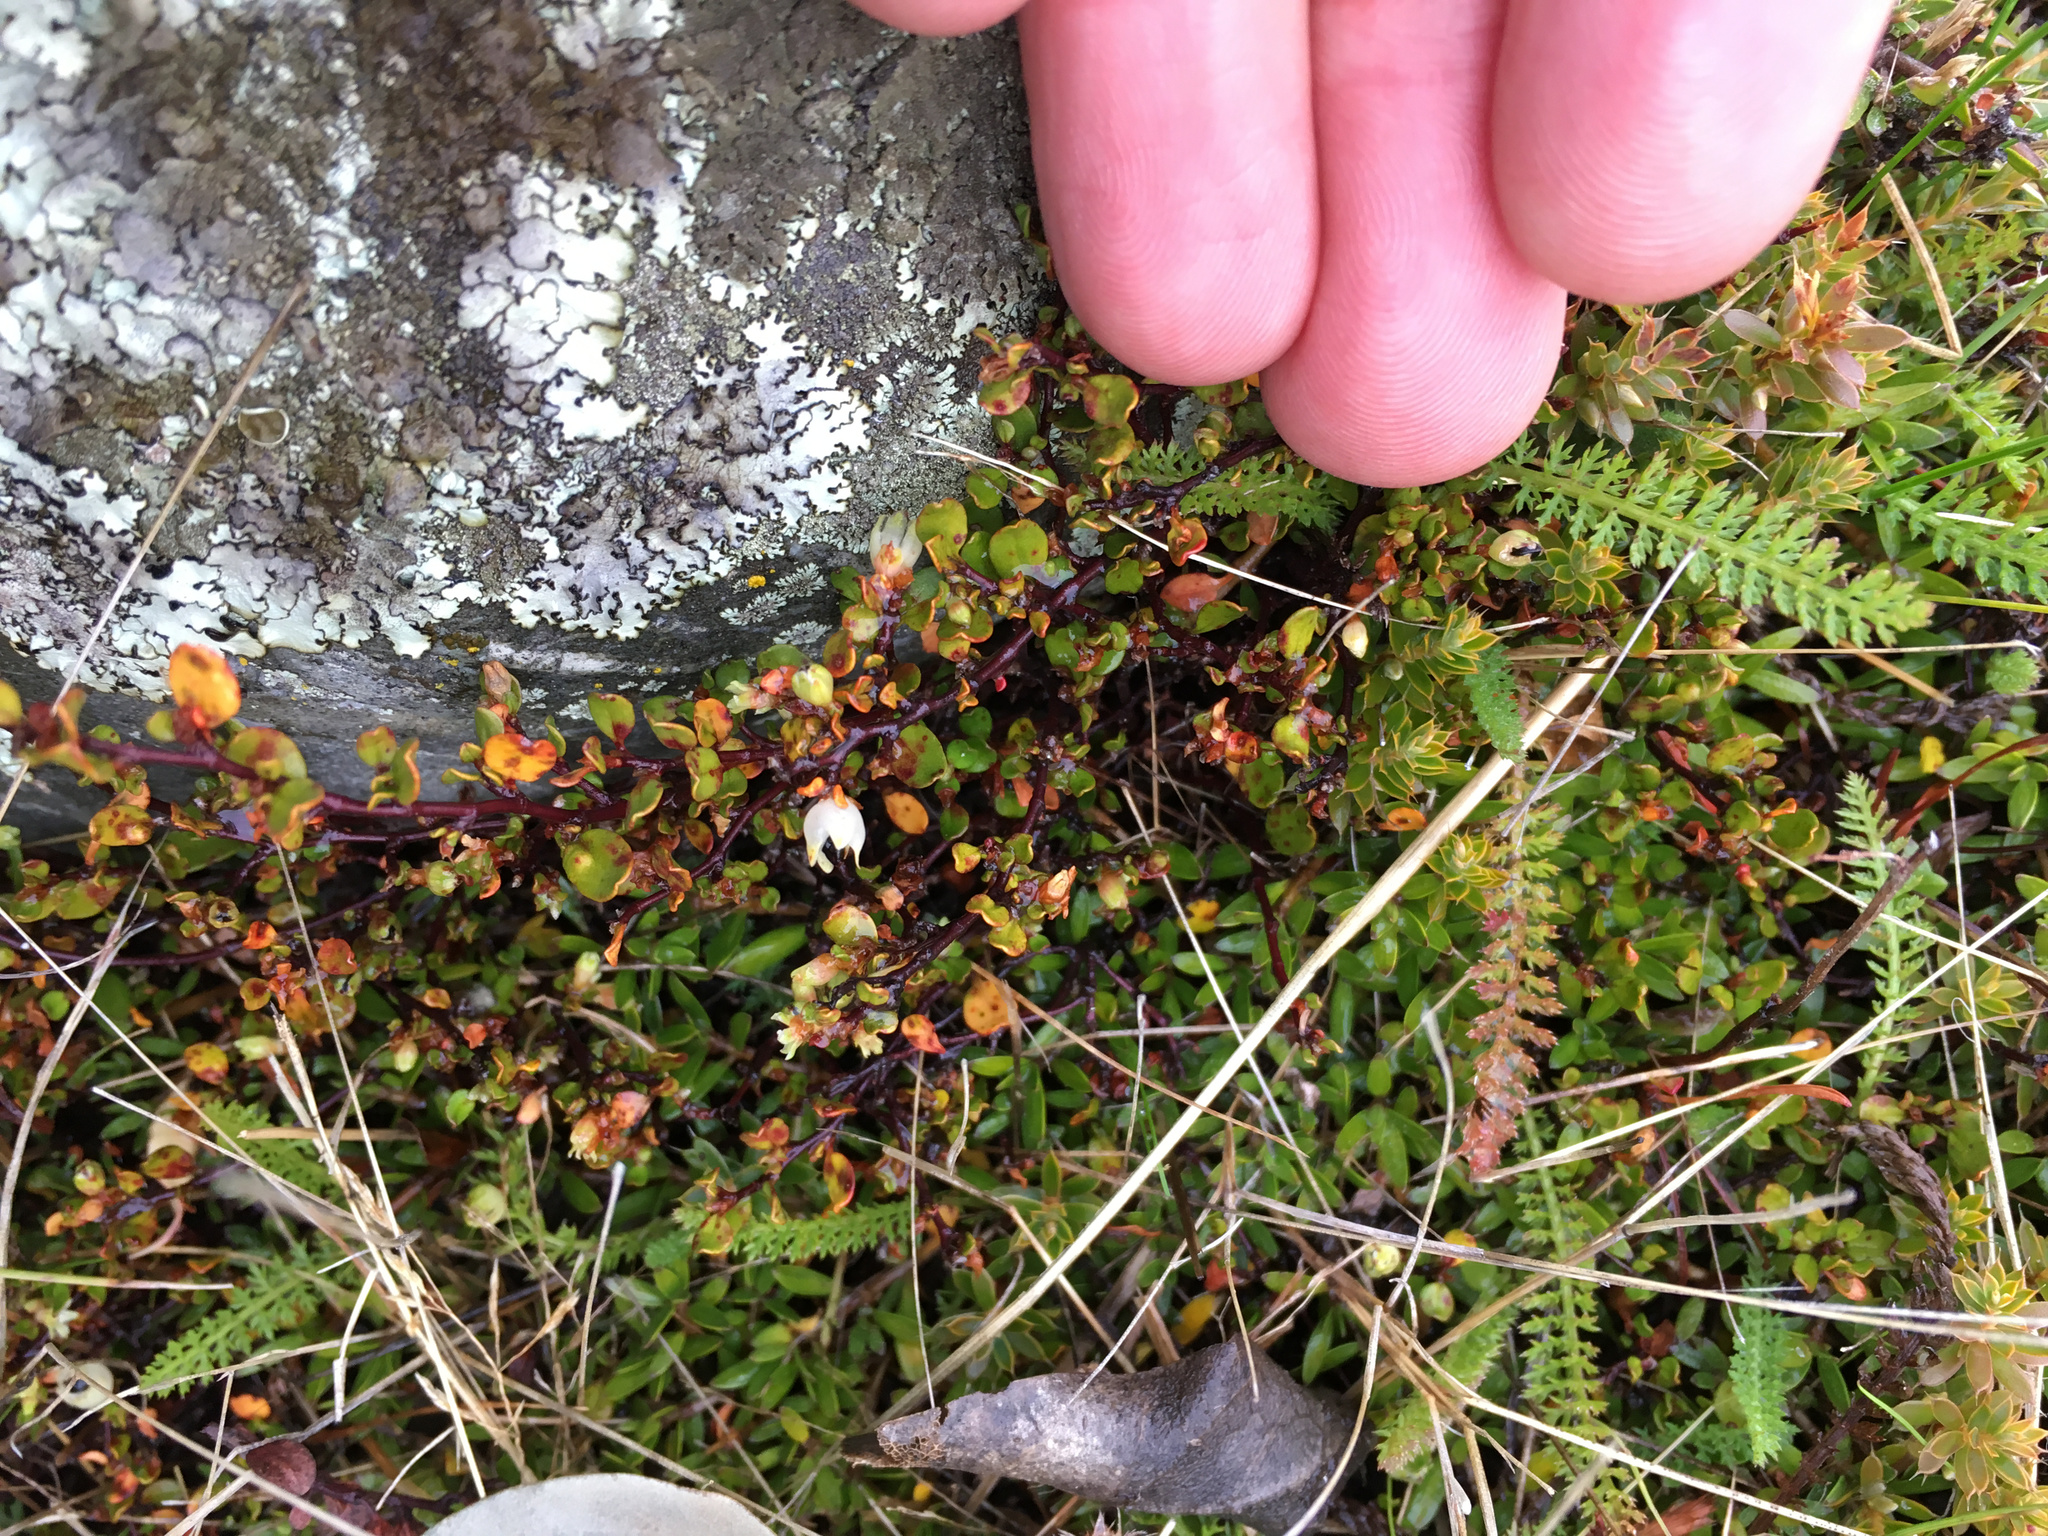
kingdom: Plantae
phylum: Tracheophyta
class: Magnoliopsida
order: Caryophyllales
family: Polygonaceae
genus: Muehlenbeckia
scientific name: Muehlenbeckia axillaris
